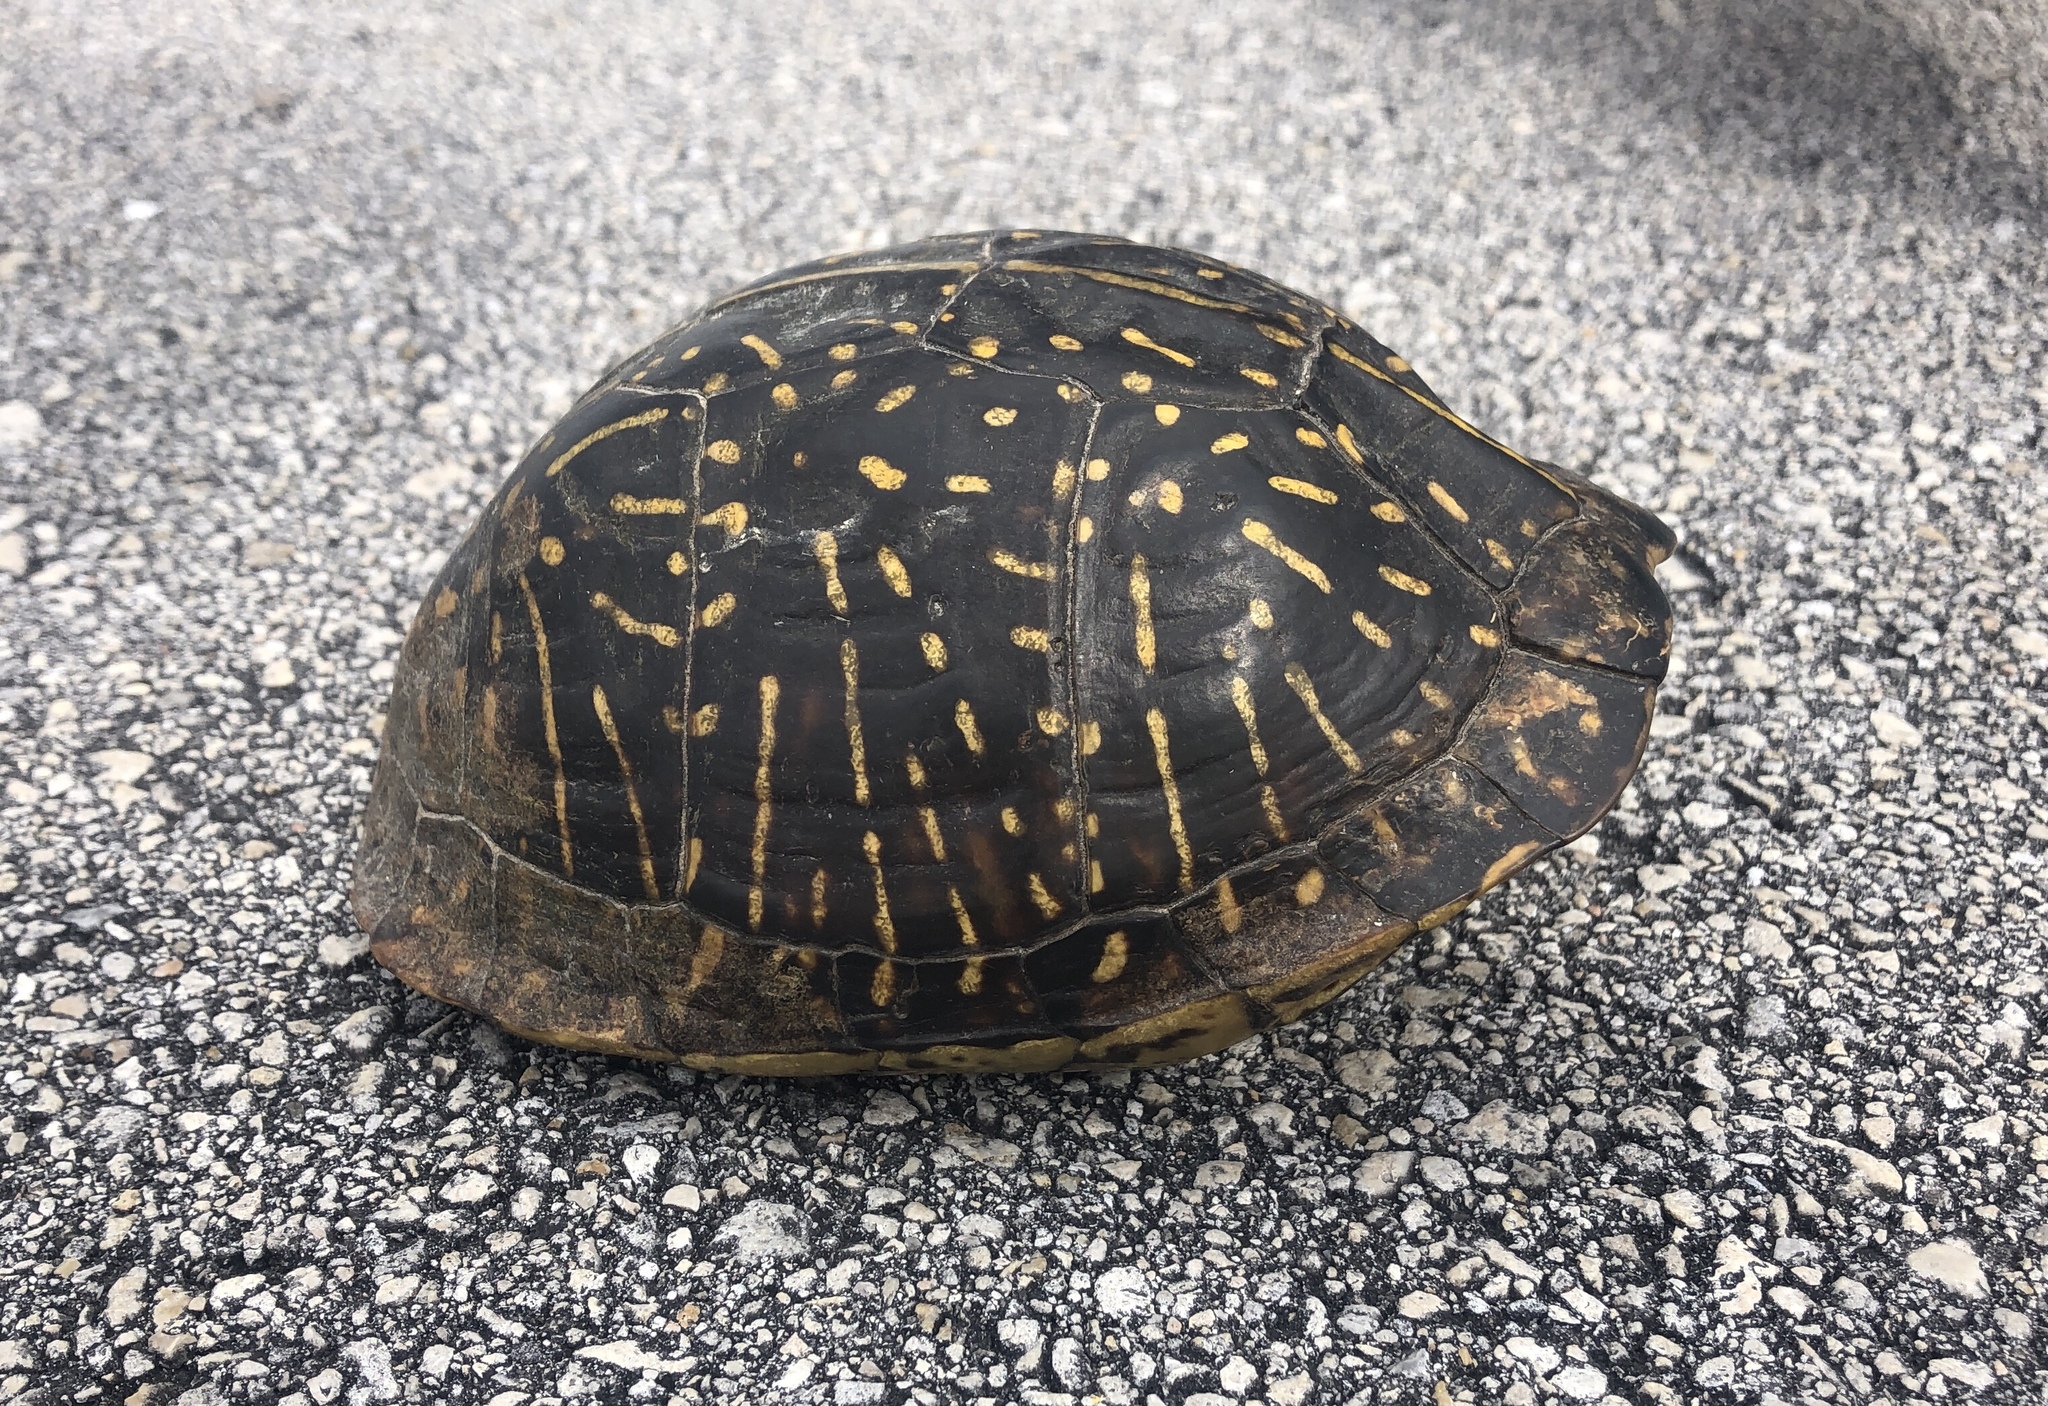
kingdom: Animalia
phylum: Chordata
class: Testudines
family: Emydidae
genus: Terrapene
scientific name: Terrapene carolina
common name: Common box turtle
